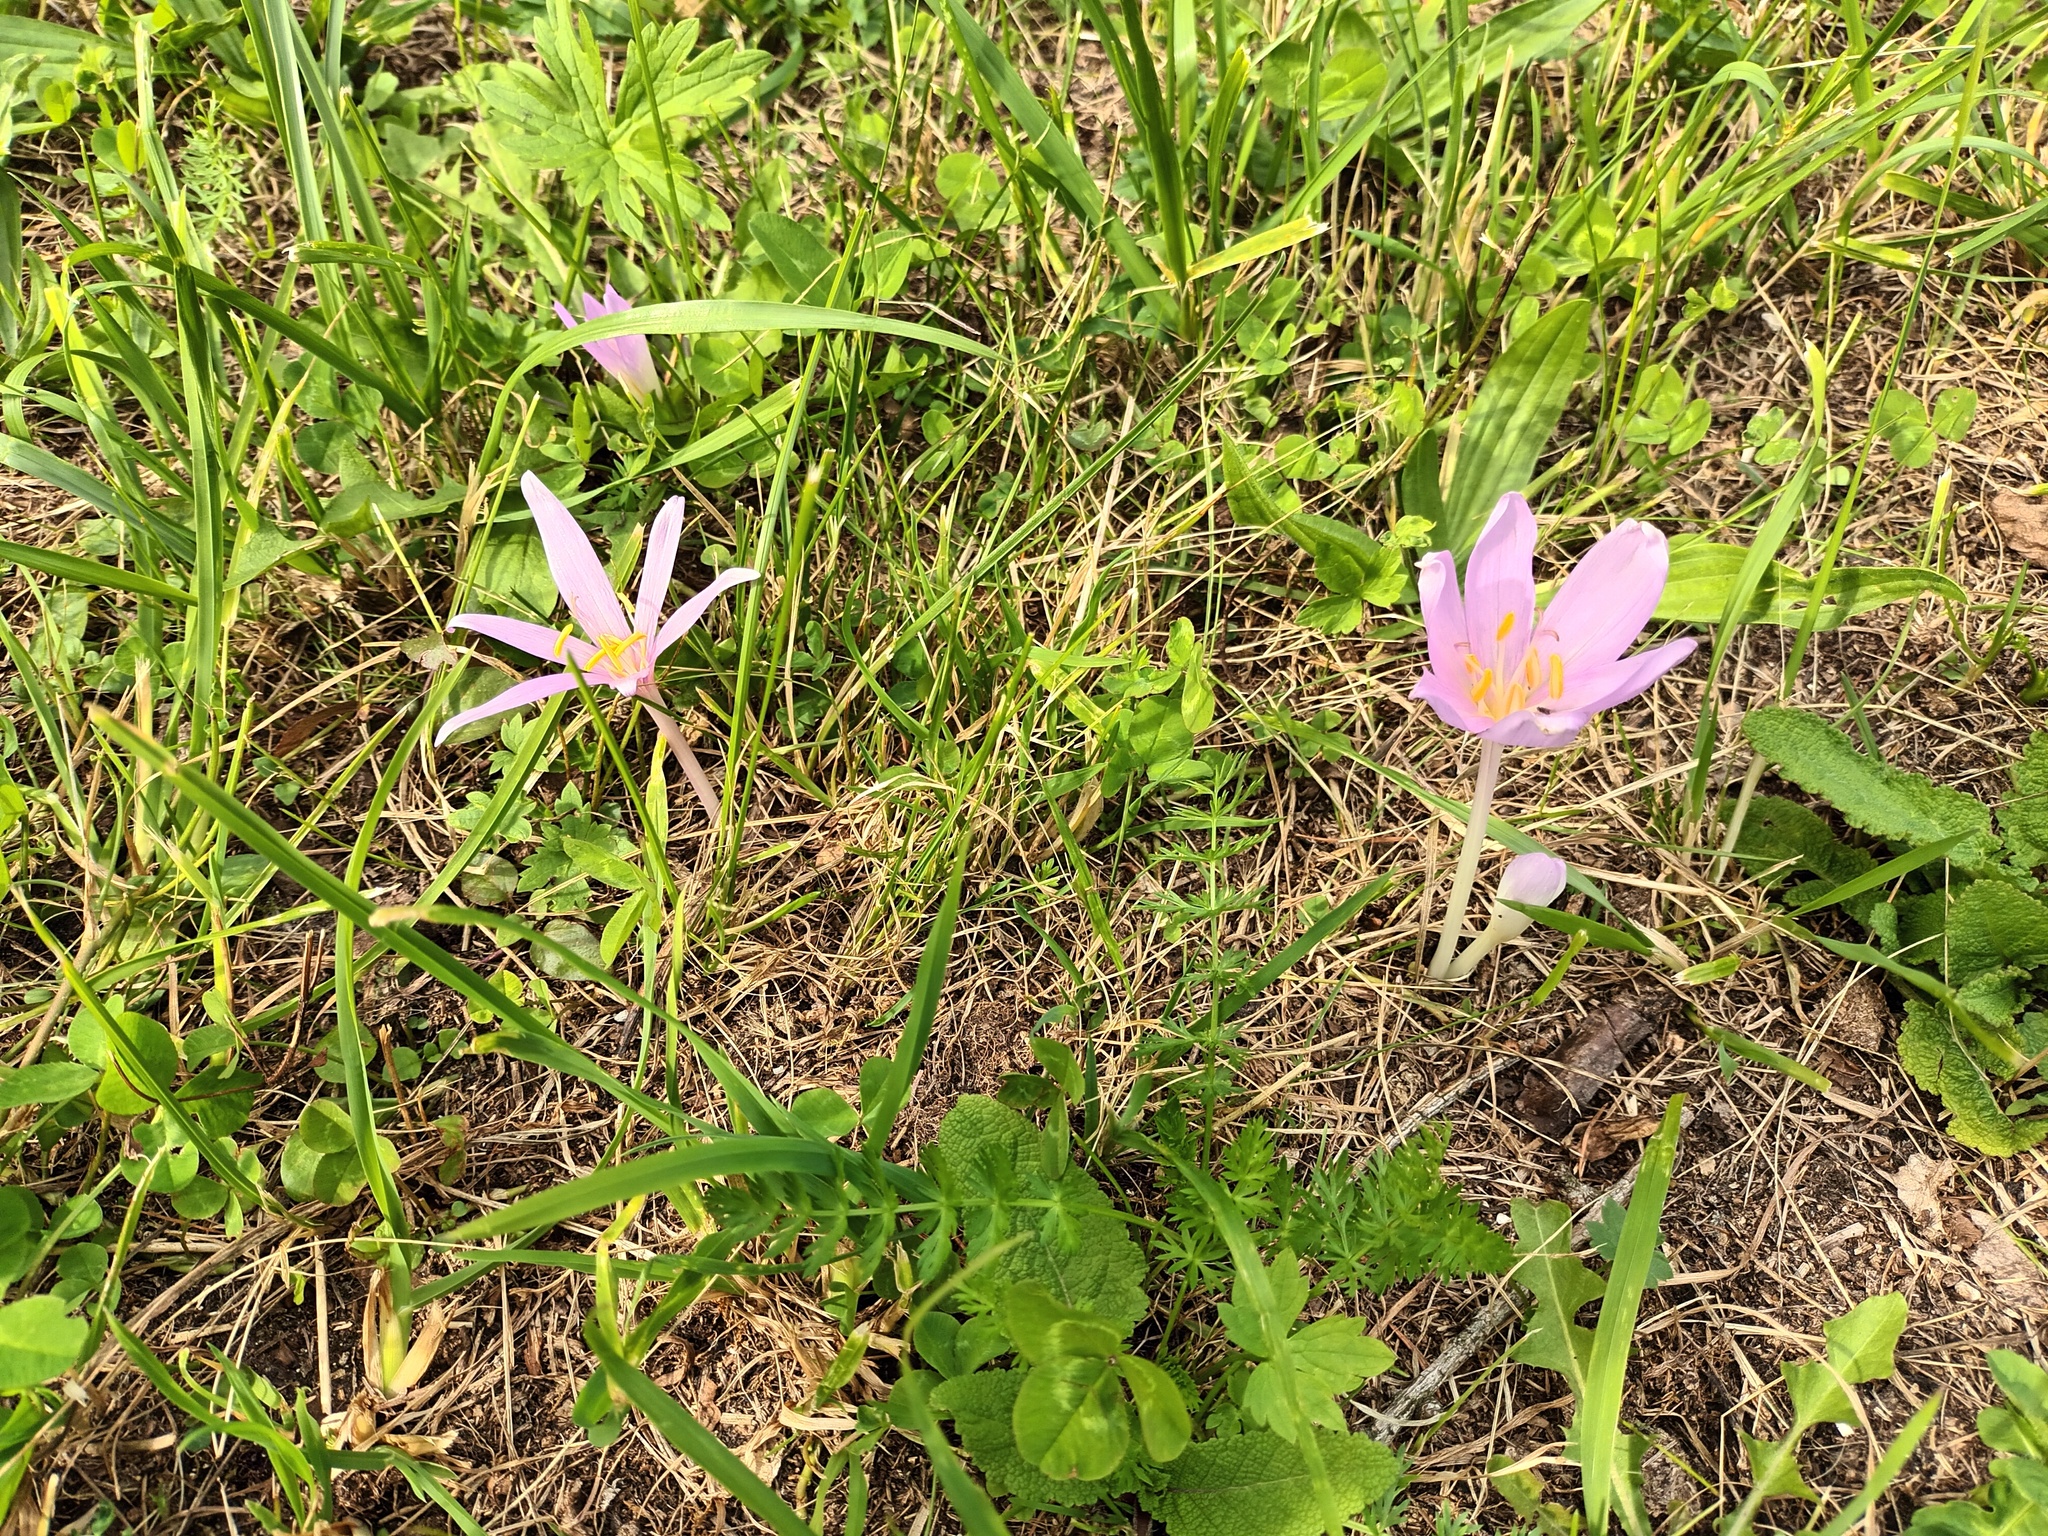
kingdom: Plantae
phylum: Tracheophyta
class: Liliopsida
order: Liliales
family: Colchicaceae
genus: Colchicum
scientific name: Colchicum autumnale
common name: Autumn crocus
